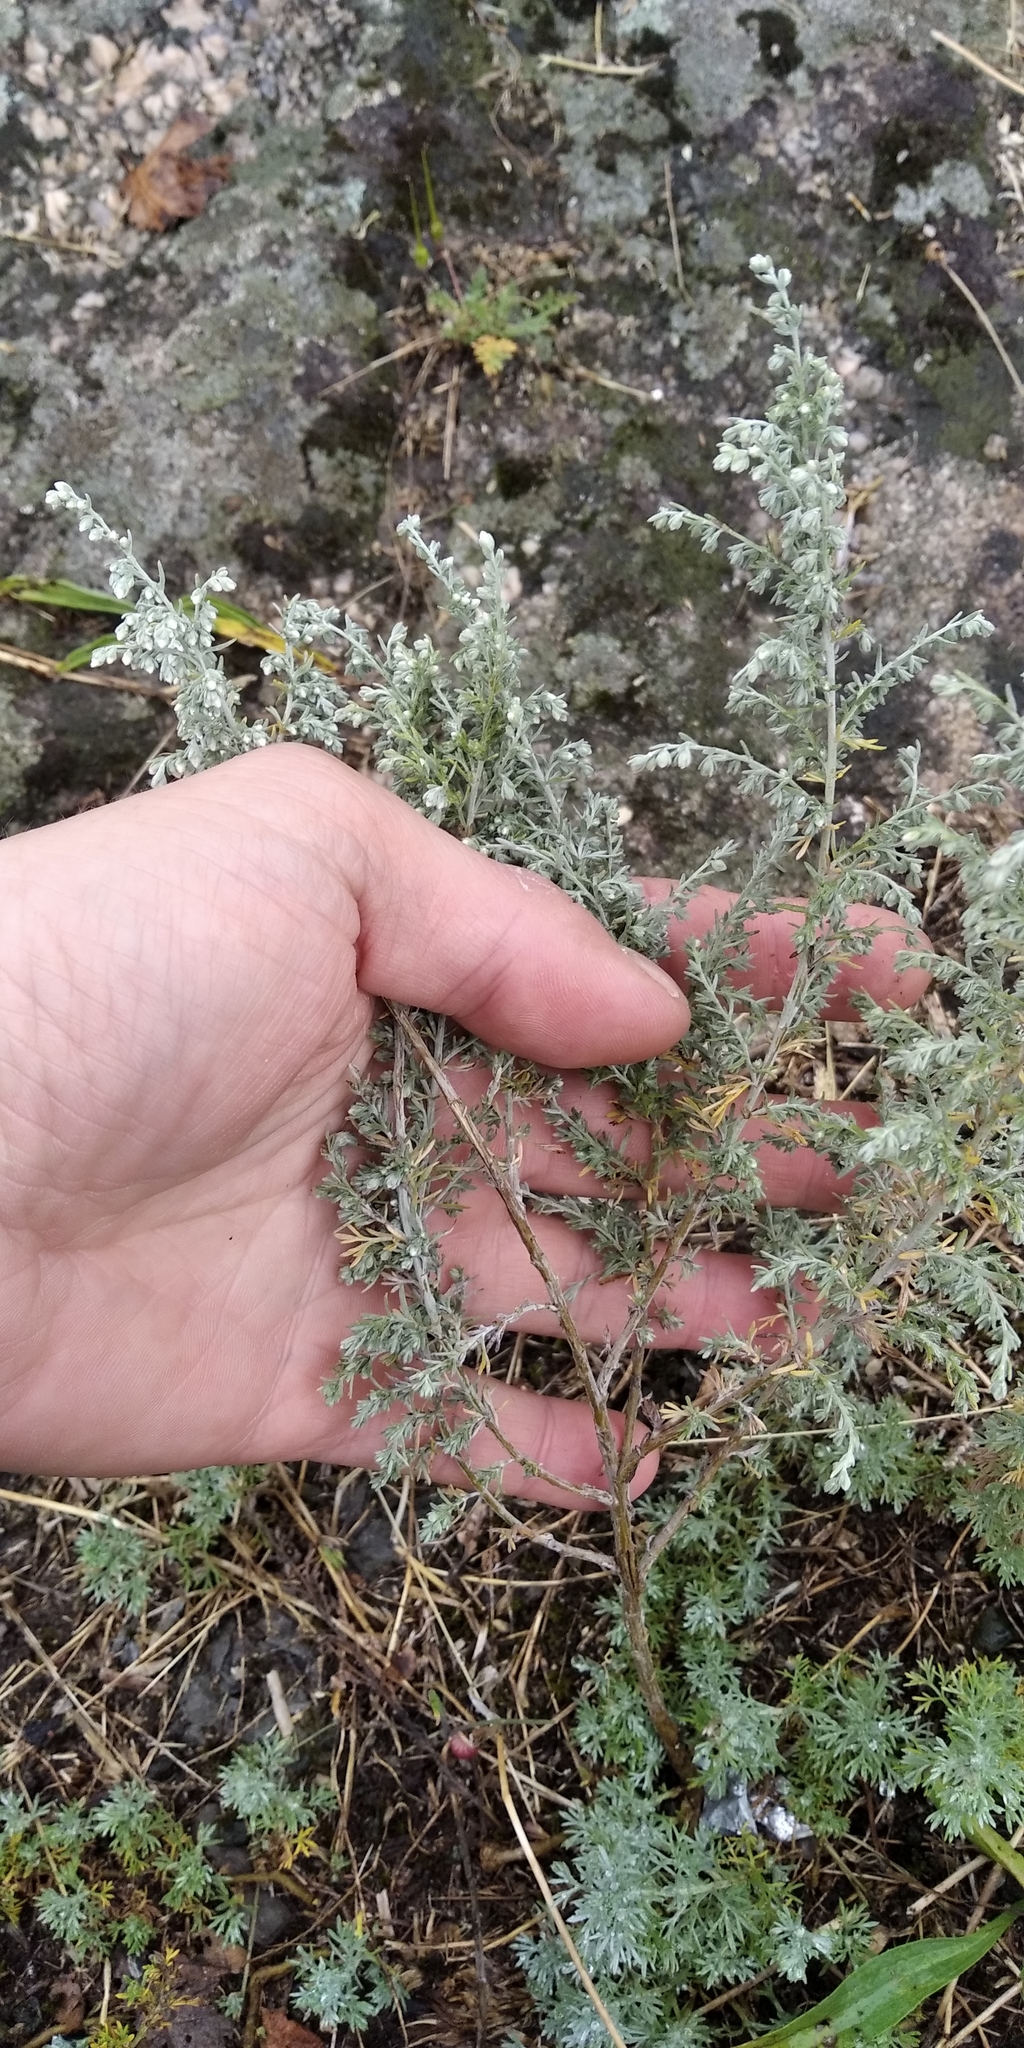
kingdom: Plantae
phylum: Tracheophyta
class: Magnoliopsida
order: Asterales
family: Asteraceae
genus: Artemisia
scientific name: Artemisia austriaca
